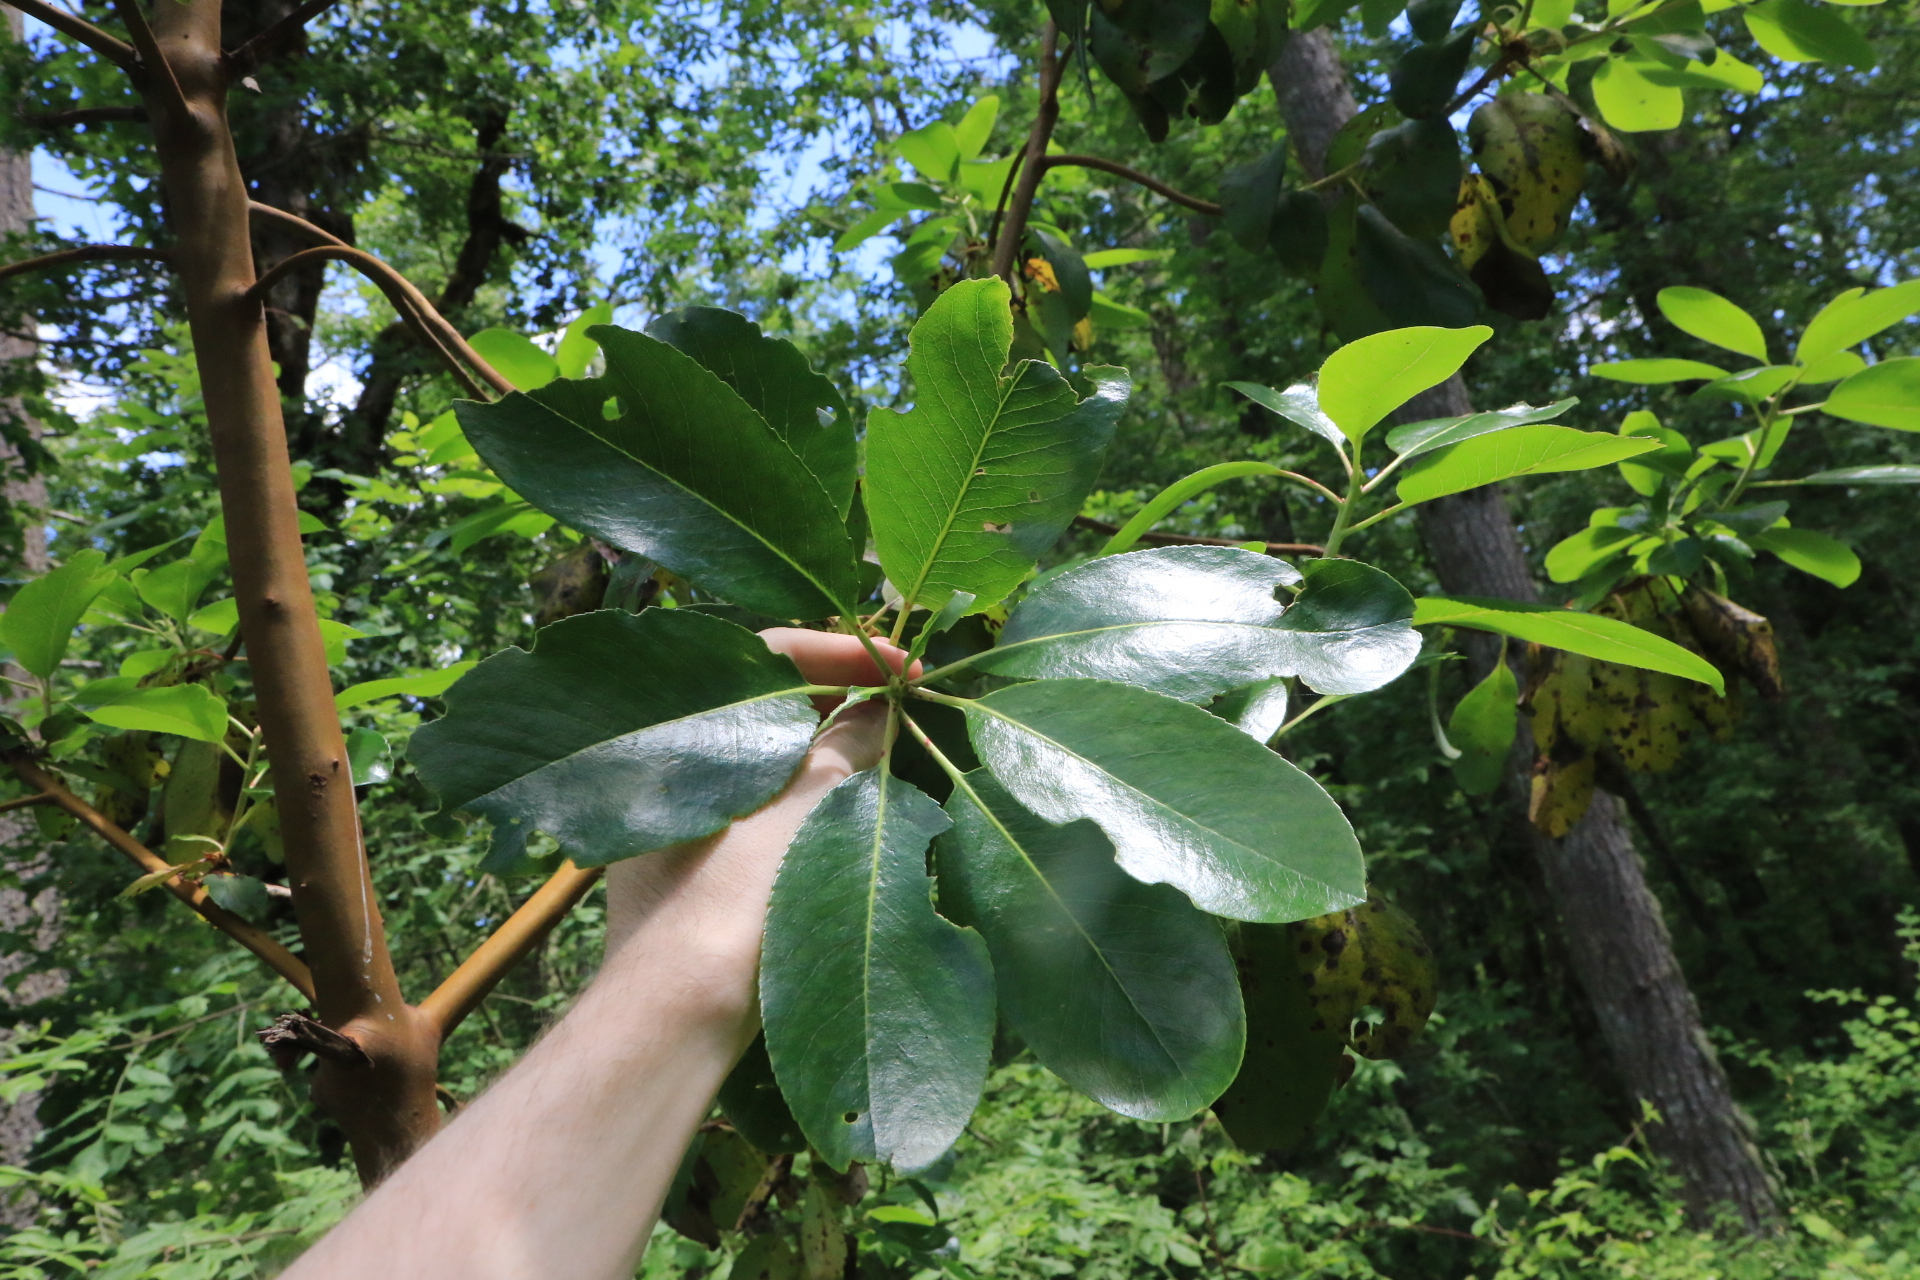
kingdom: Plantae
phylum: Tracheophyta
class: Magnoliopsida
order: Ericales
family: Ericaceae
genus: Arbutus
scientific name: Arbutus menziesii
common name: Pacific madrone
